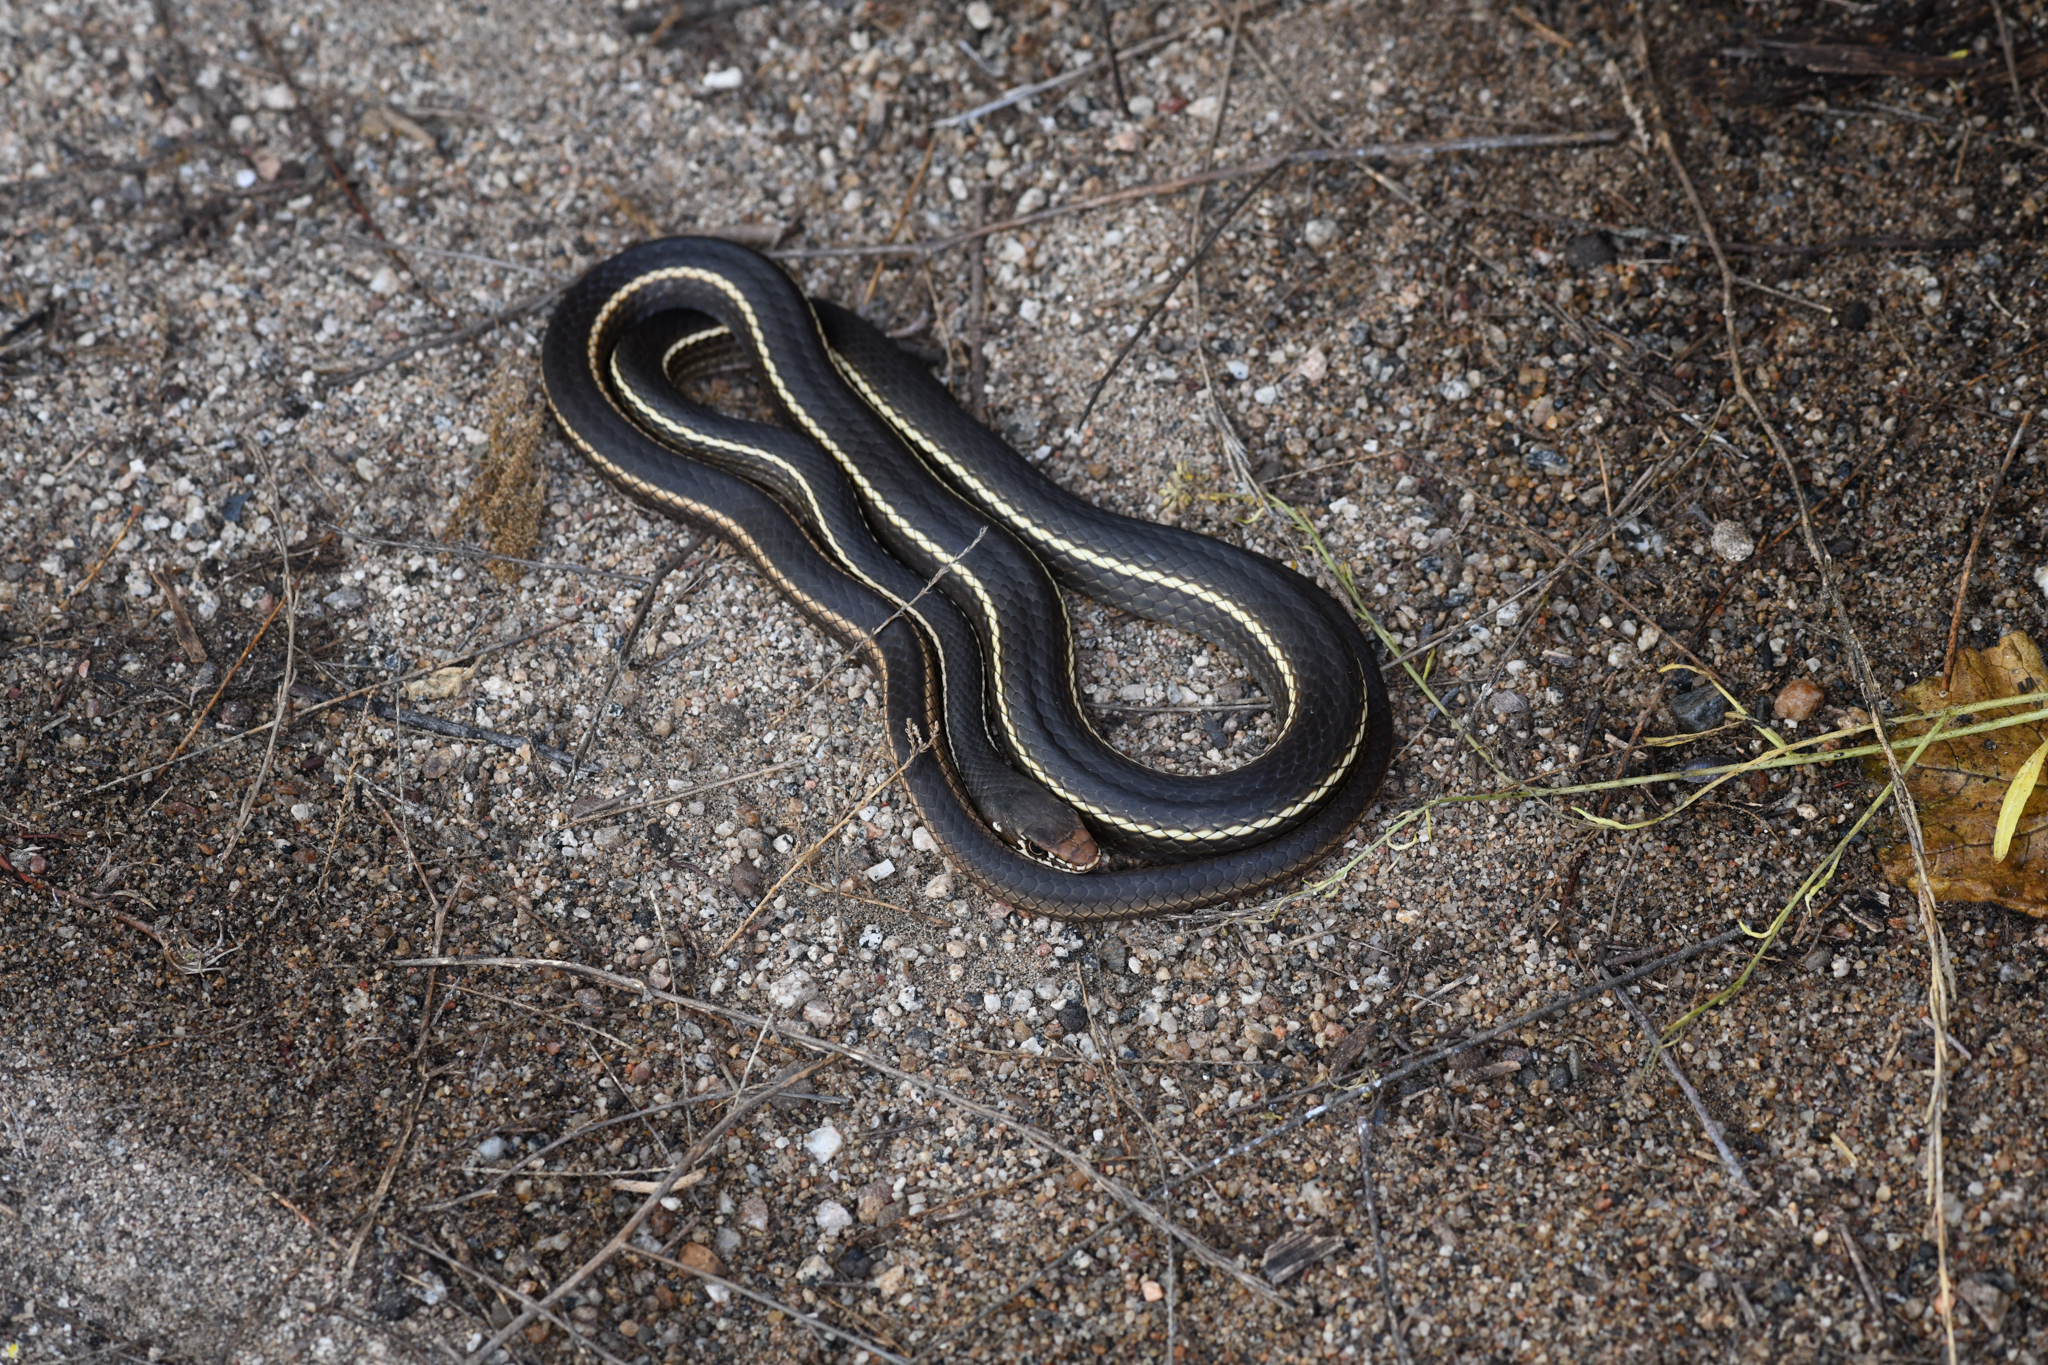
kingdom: Animalia
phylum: Chordata
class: Squamata
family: Colubridae
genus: Masticophis
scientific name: Masticophis lateralis
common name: Striped racer
